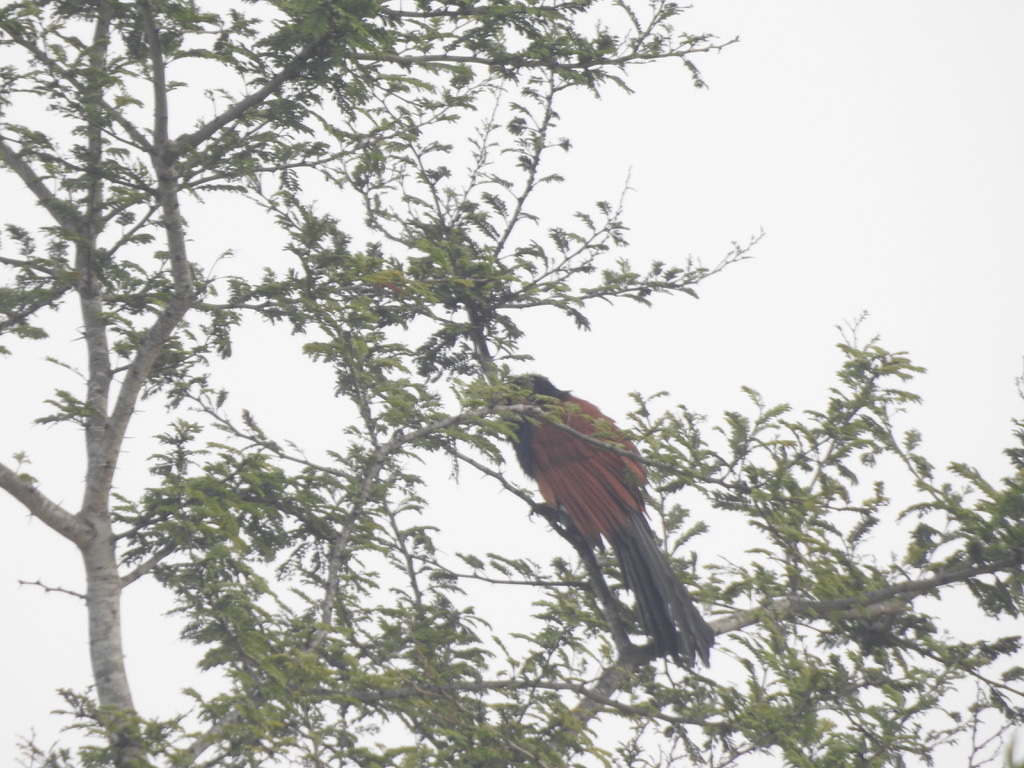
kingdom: Animalia
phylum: Chordata
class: Aves
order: Cuculiformes
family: Cuculidae
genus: Centropus
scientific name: Centropus sinensis
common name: Greater coucal
